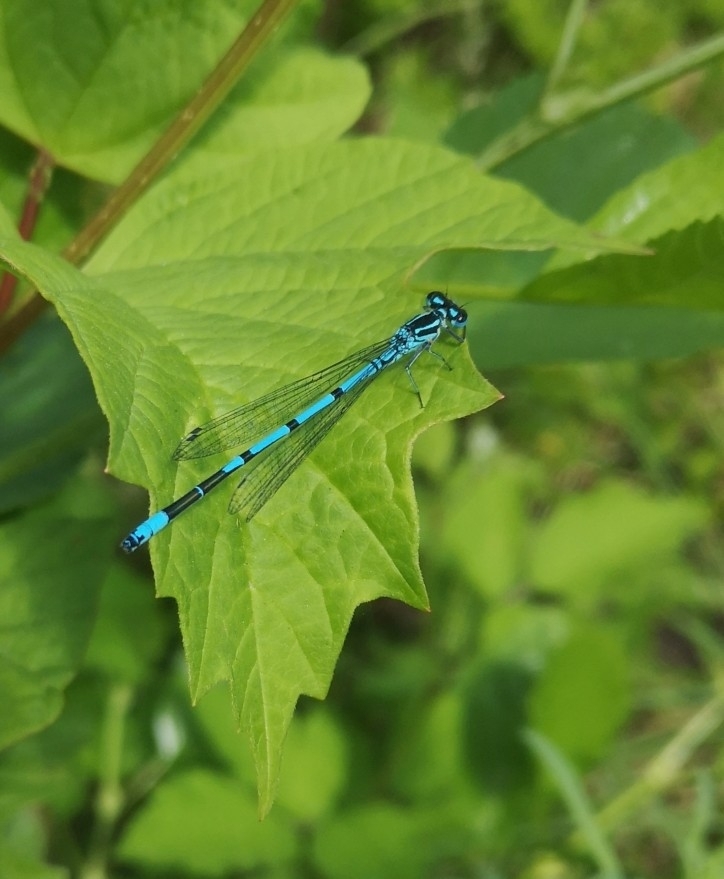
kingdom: Animalia
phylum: Arthropoda
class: Insecta
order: Odonata
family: Coenagrionidae
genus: Coenagrion
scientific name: Coenagrion puella
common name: Azure damselfly
